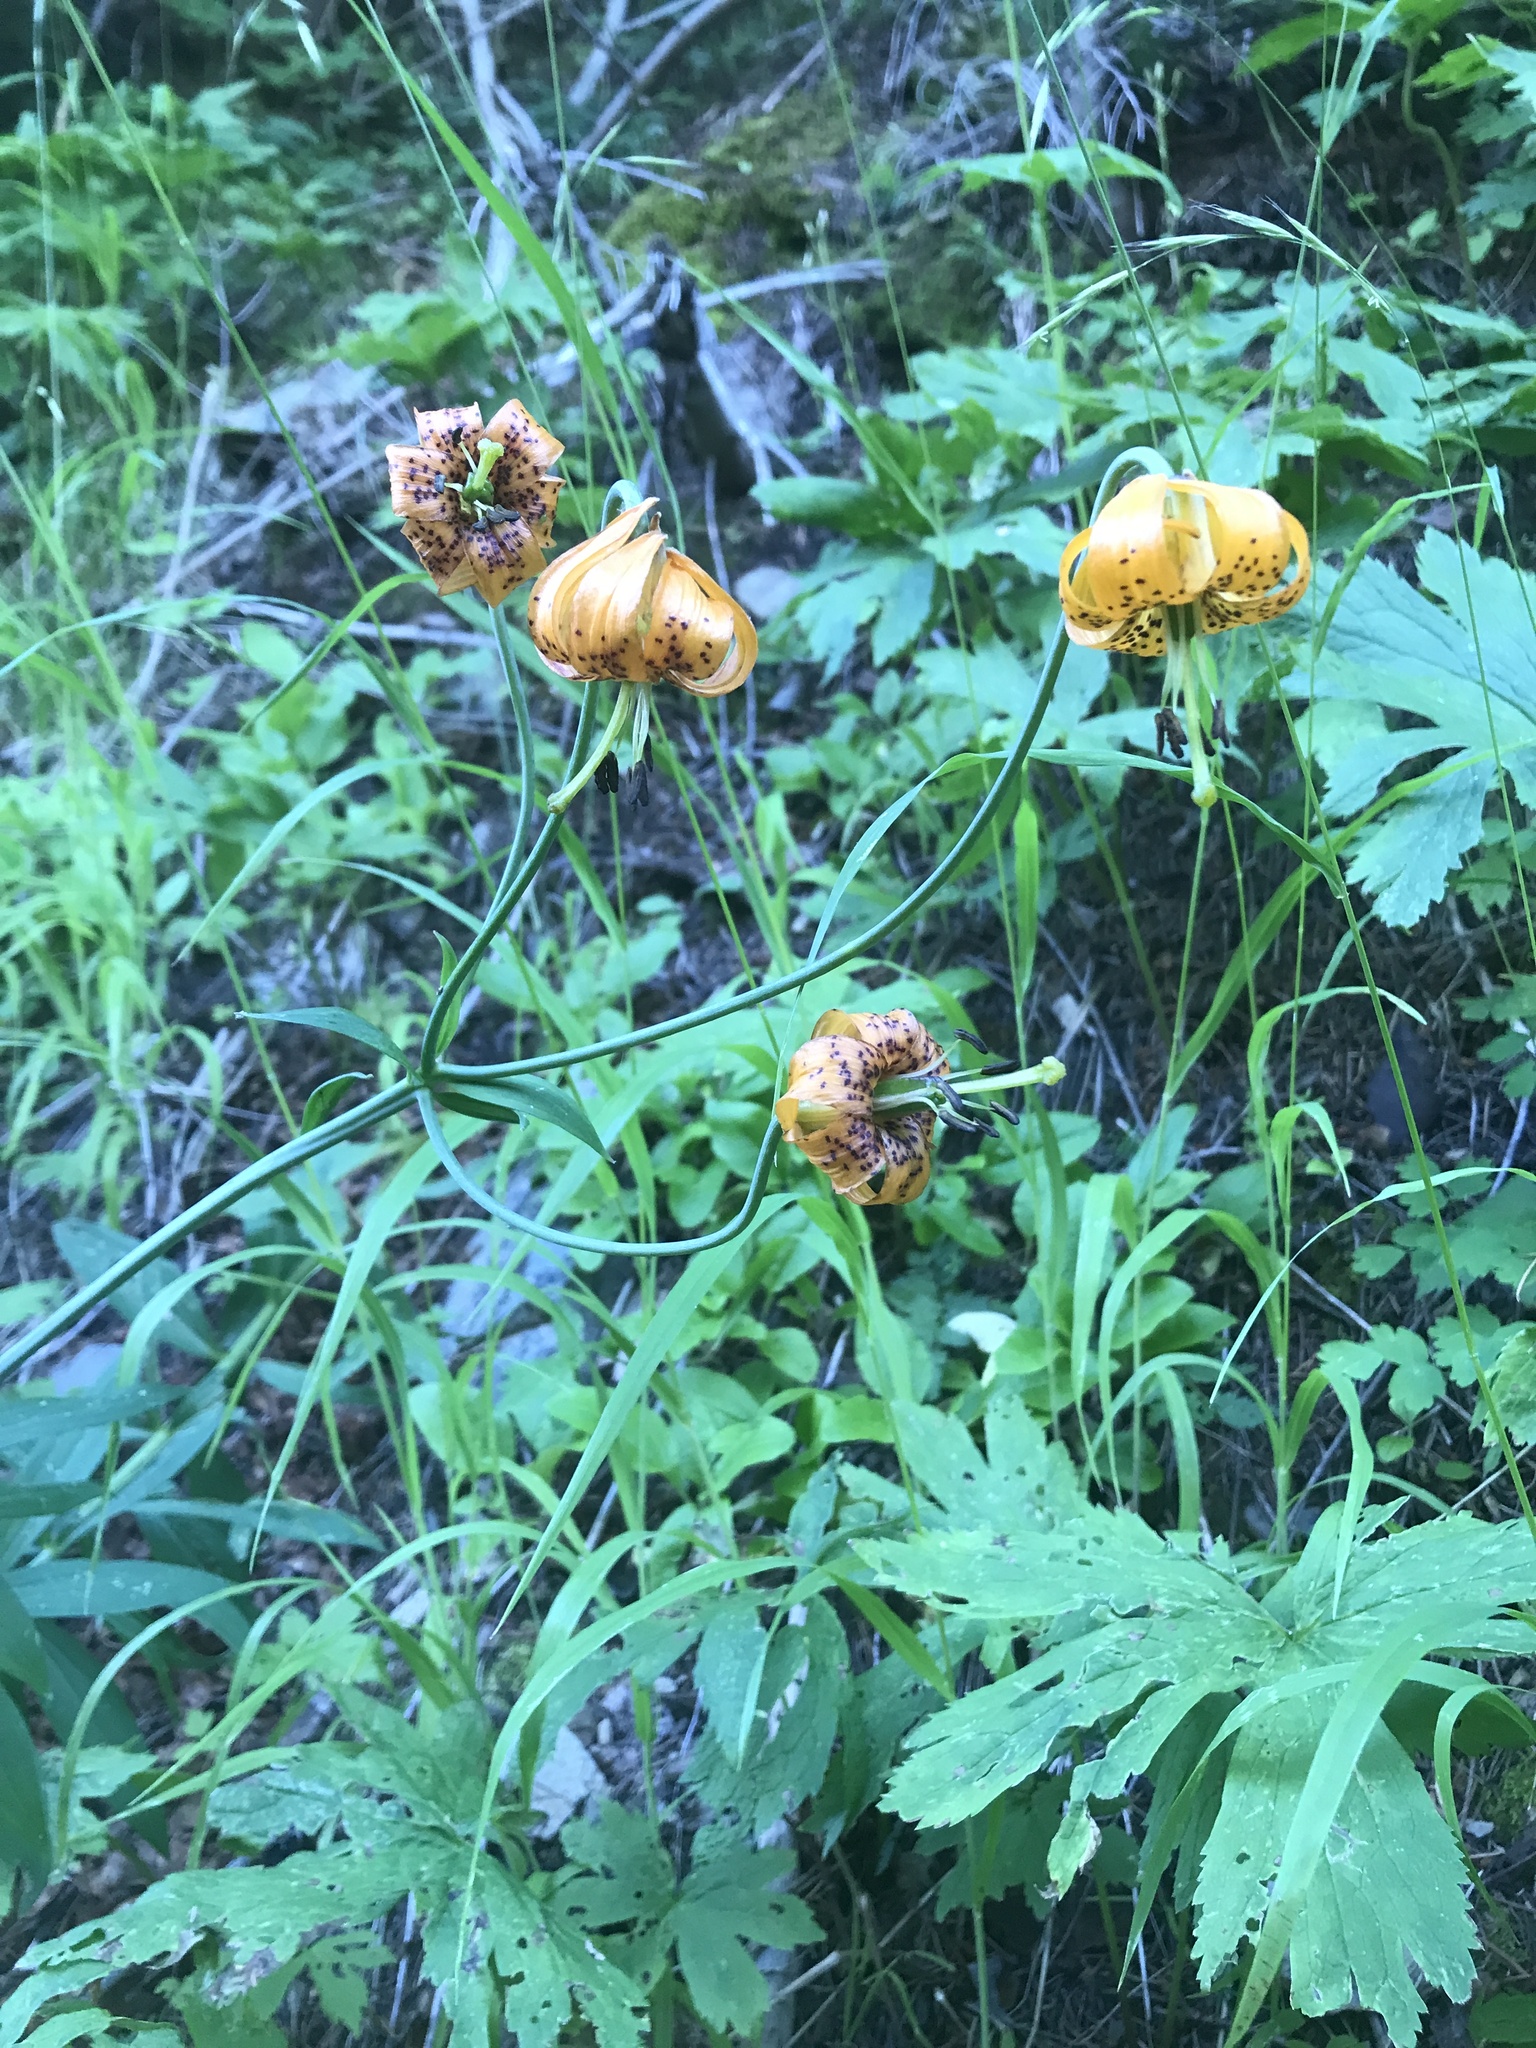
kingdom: Plantae
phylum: Tracheophyta
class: Liliopsida
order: Liliales
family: Liliaceae
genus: Lilium
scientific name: Lilium columbianum
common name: Columbia lily
